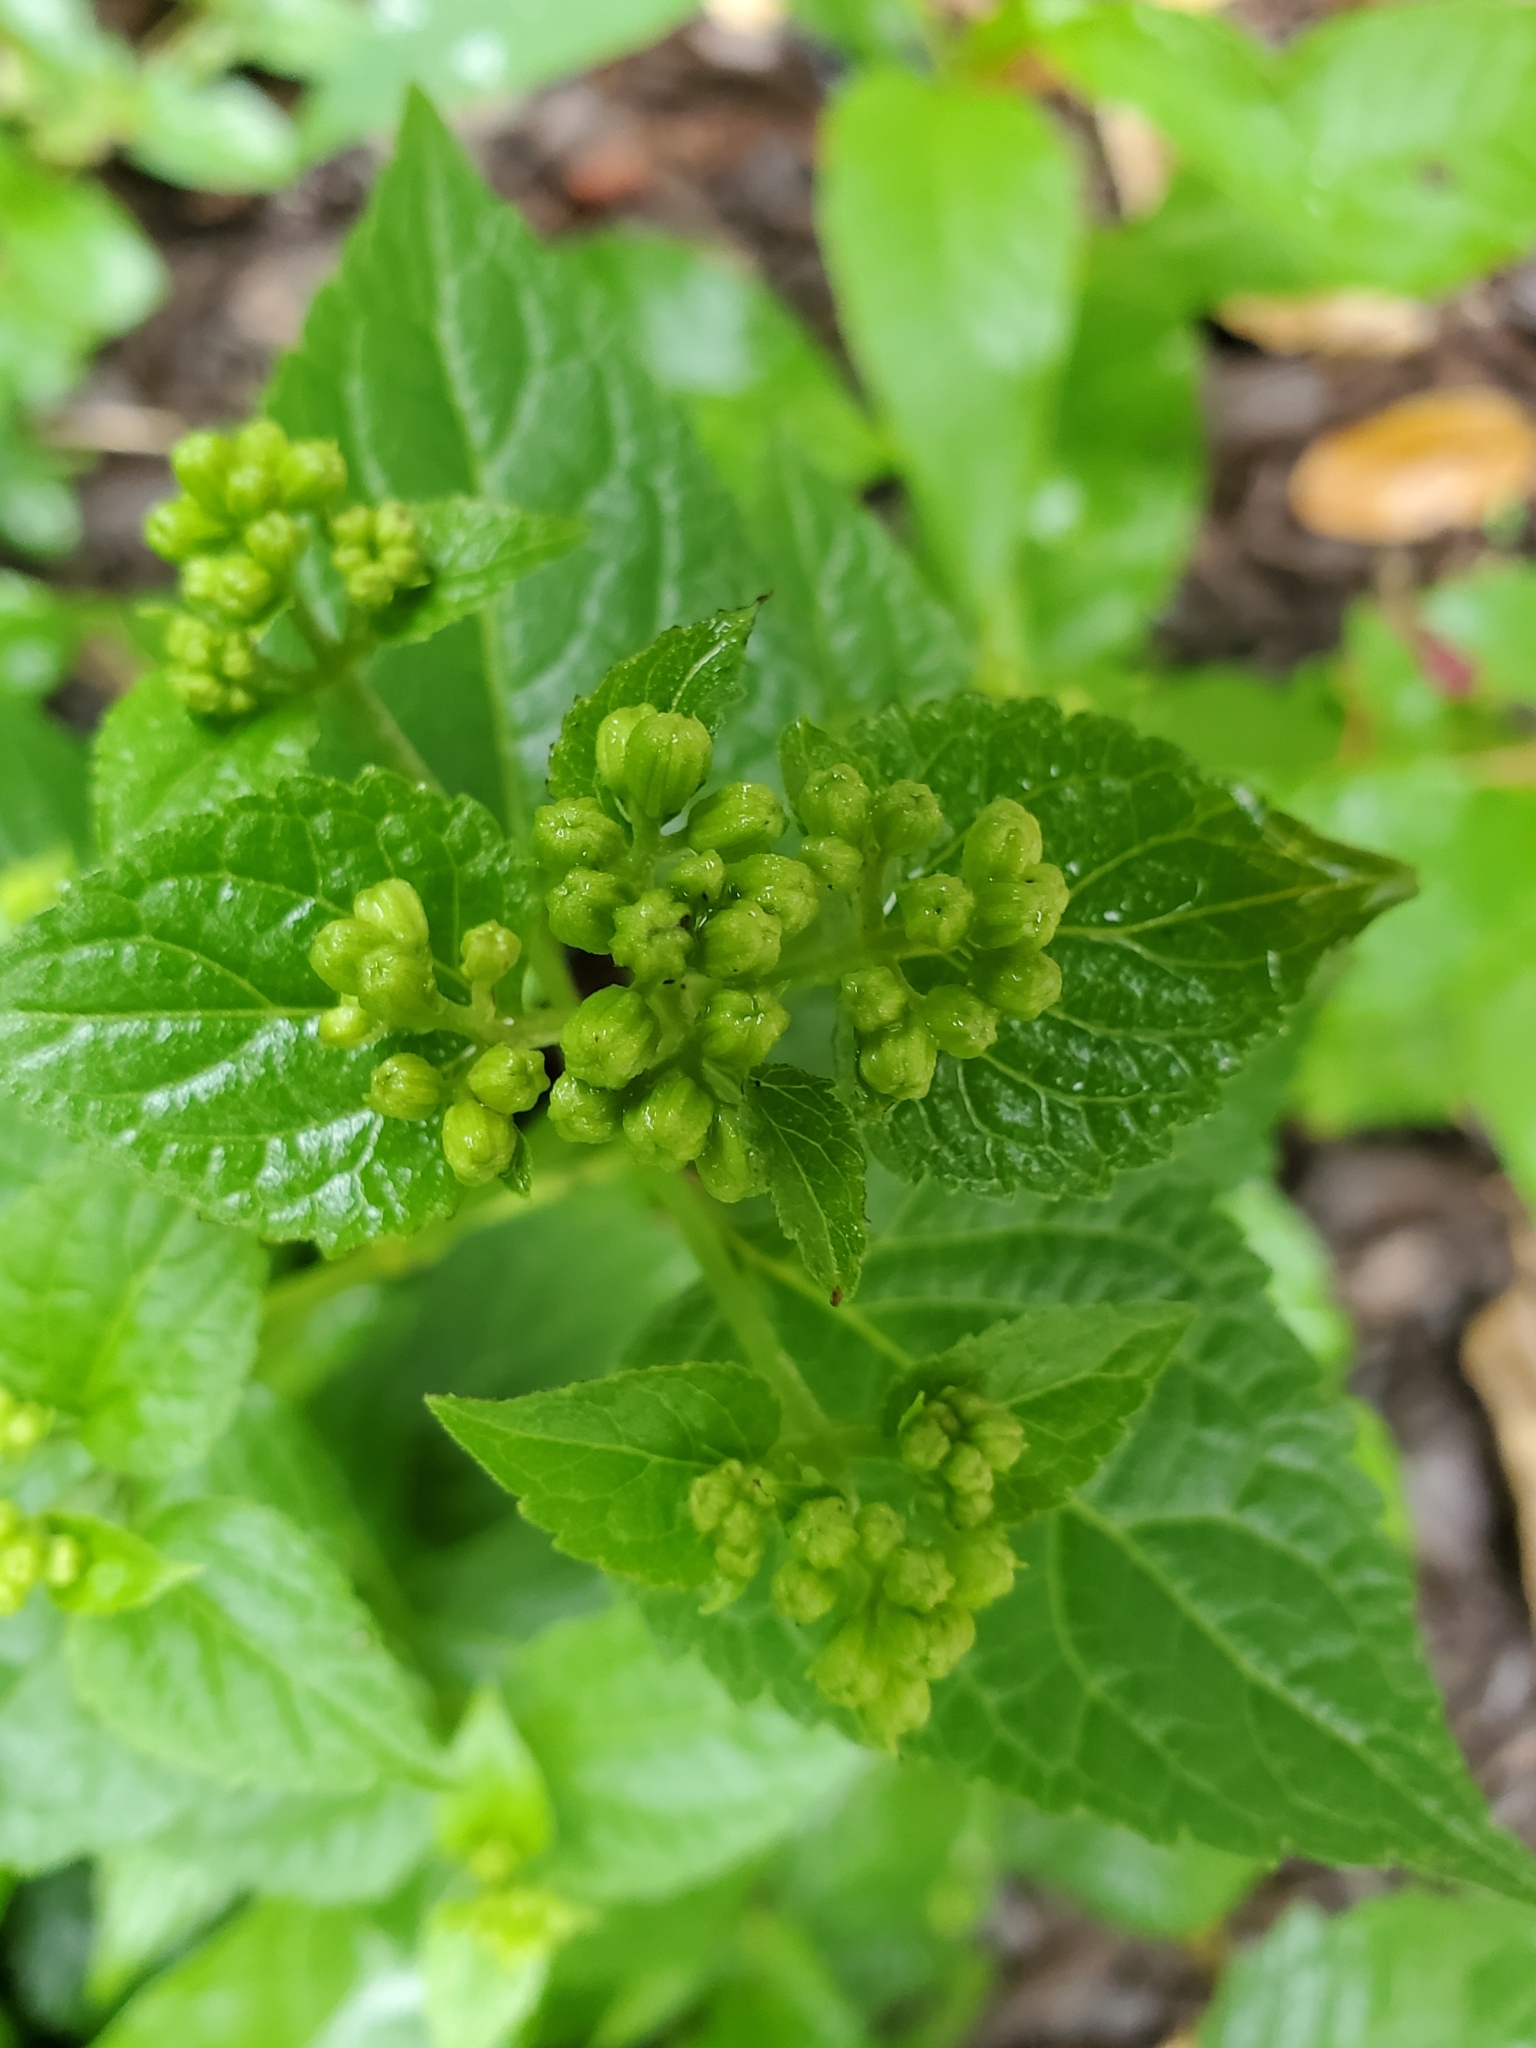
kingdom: Plantae
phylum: Tracheophyta
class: Magnoliopsida
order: Asterales
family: Asteraceae
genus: Ageratina
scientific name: Ageratina altissima
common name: White snakeroot
